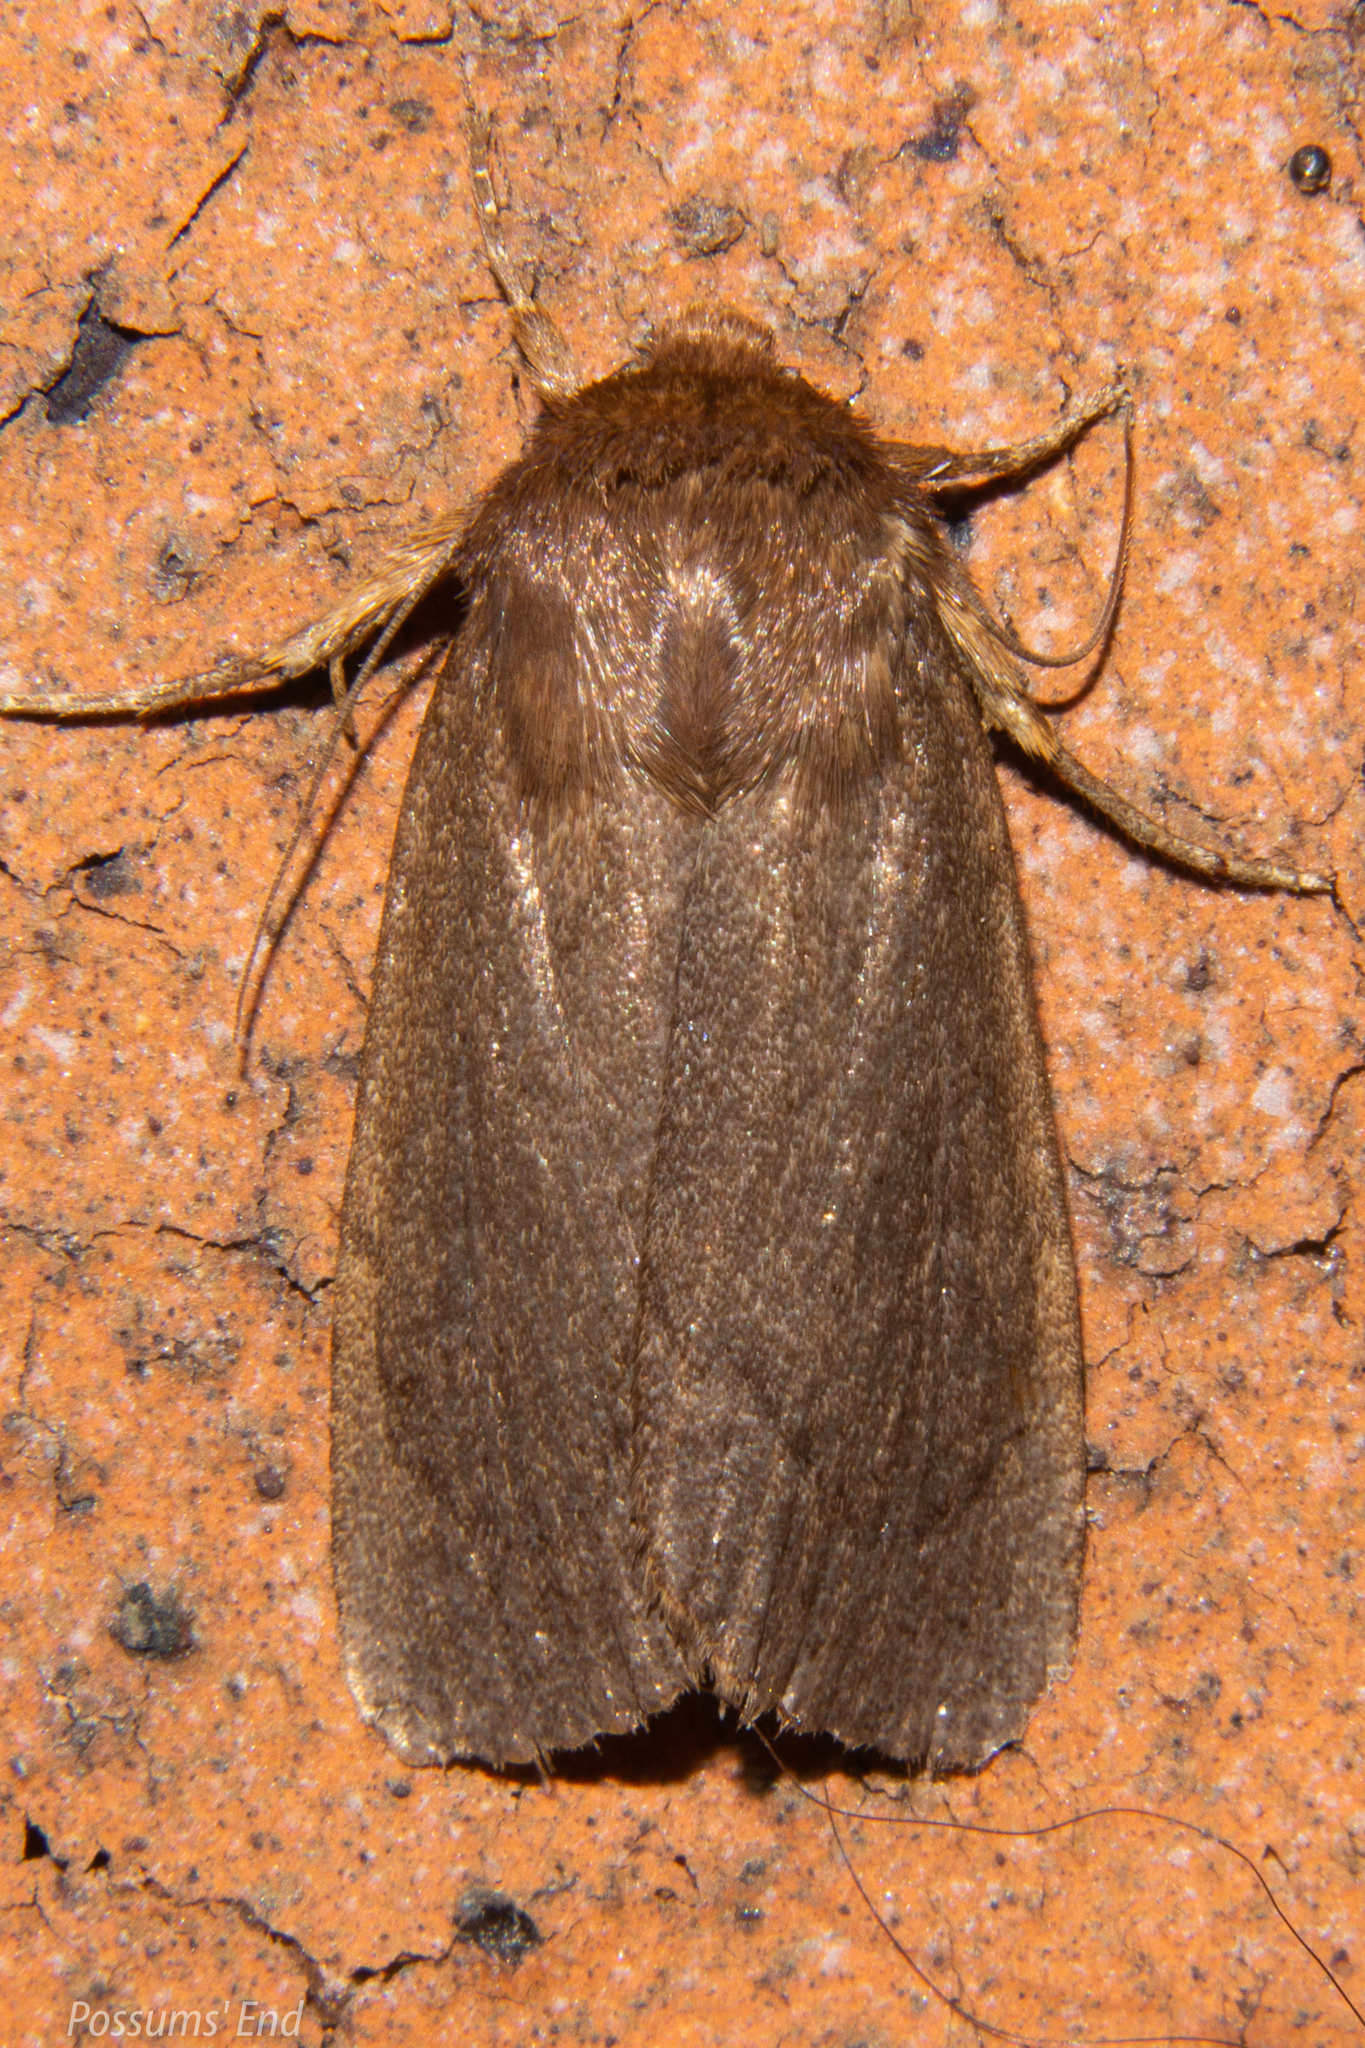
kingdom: Animalia
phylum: Arthropoda
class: Insecta
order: Lepidoptera
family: Noctuidae
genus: Bityla
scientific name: Bityla defigurata
